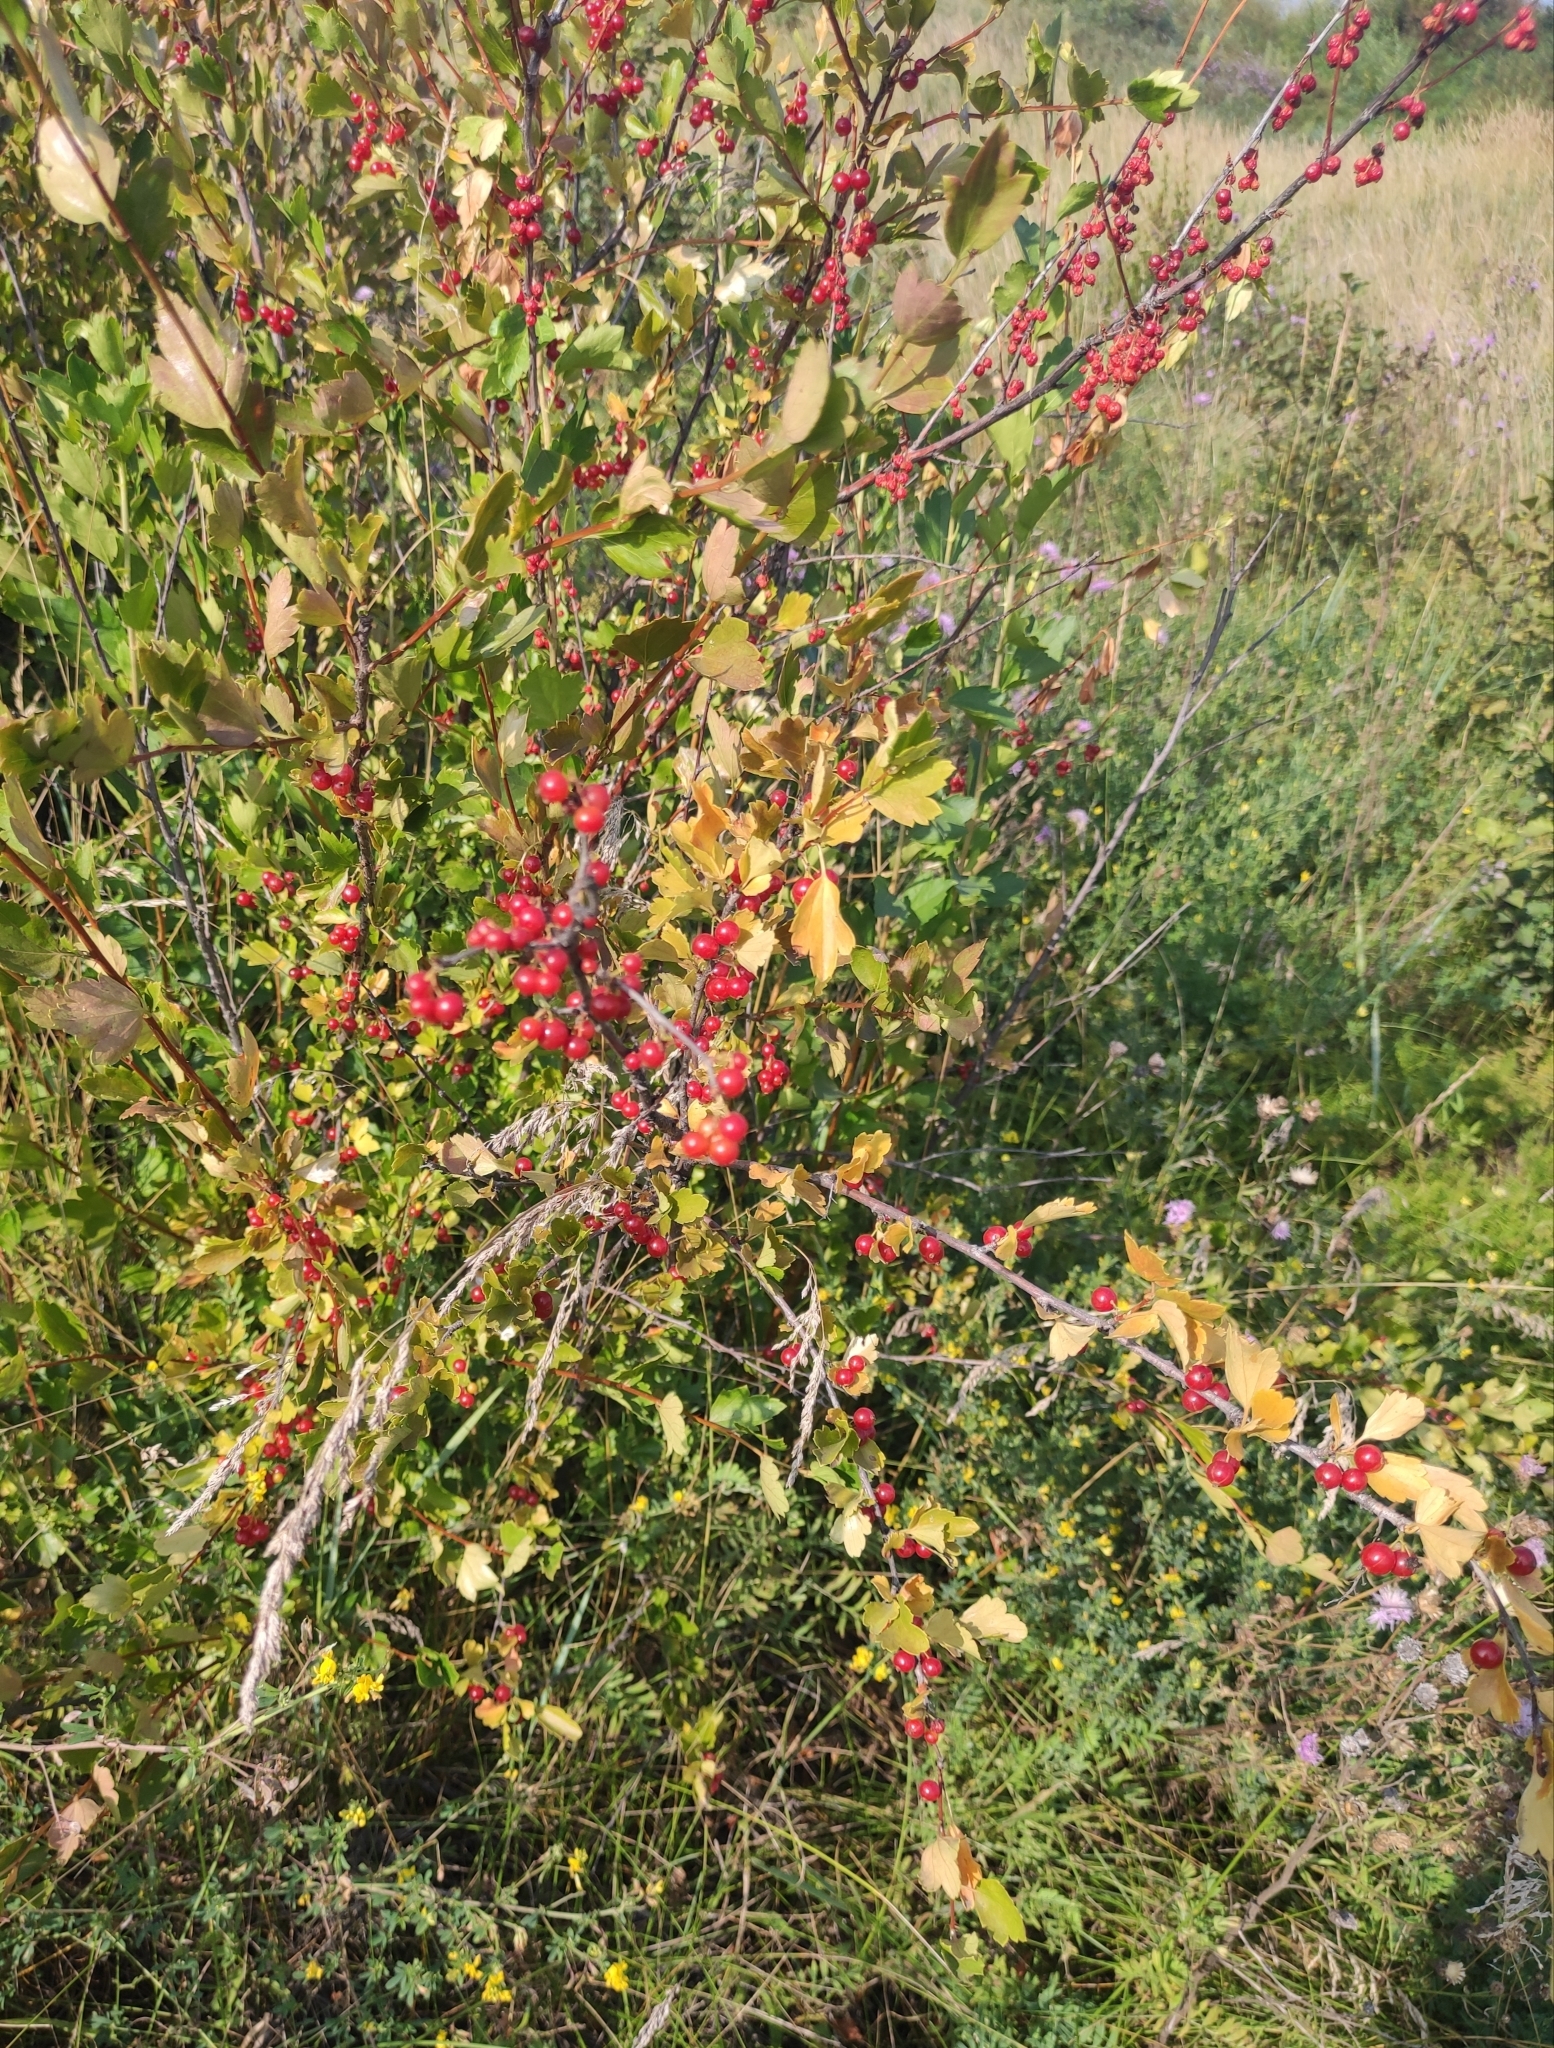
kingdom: Plantae
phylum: Tracheophyta
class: Magnoliopsida
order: Saxifragales
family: Grossulariaceae
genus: Ribes
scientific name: Ribes diacanthum
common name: Siberian currant
